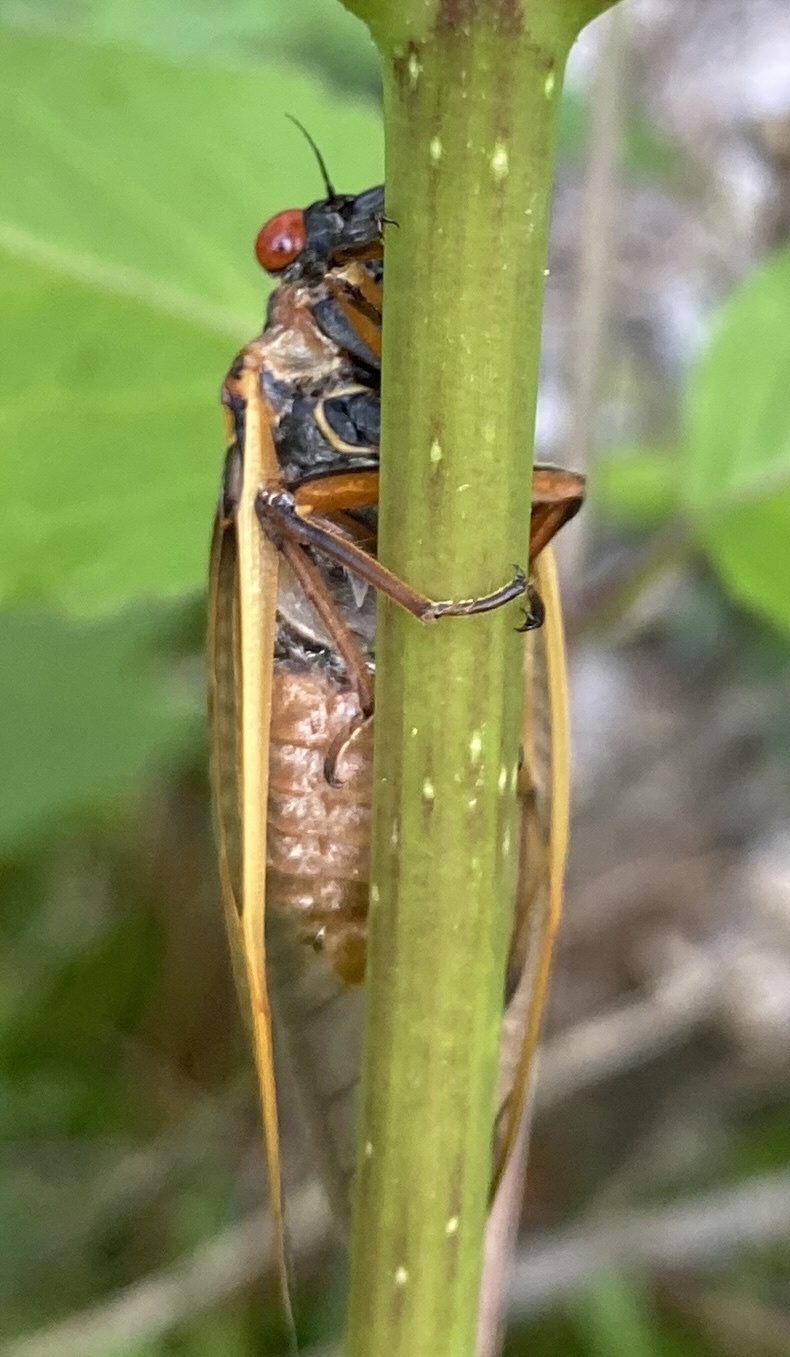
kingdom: Animalia
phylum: Arthropoda
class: Insecta
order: Hemiptera
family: Cicadidae
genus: Magicicada
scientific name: Magicicada tredecim
